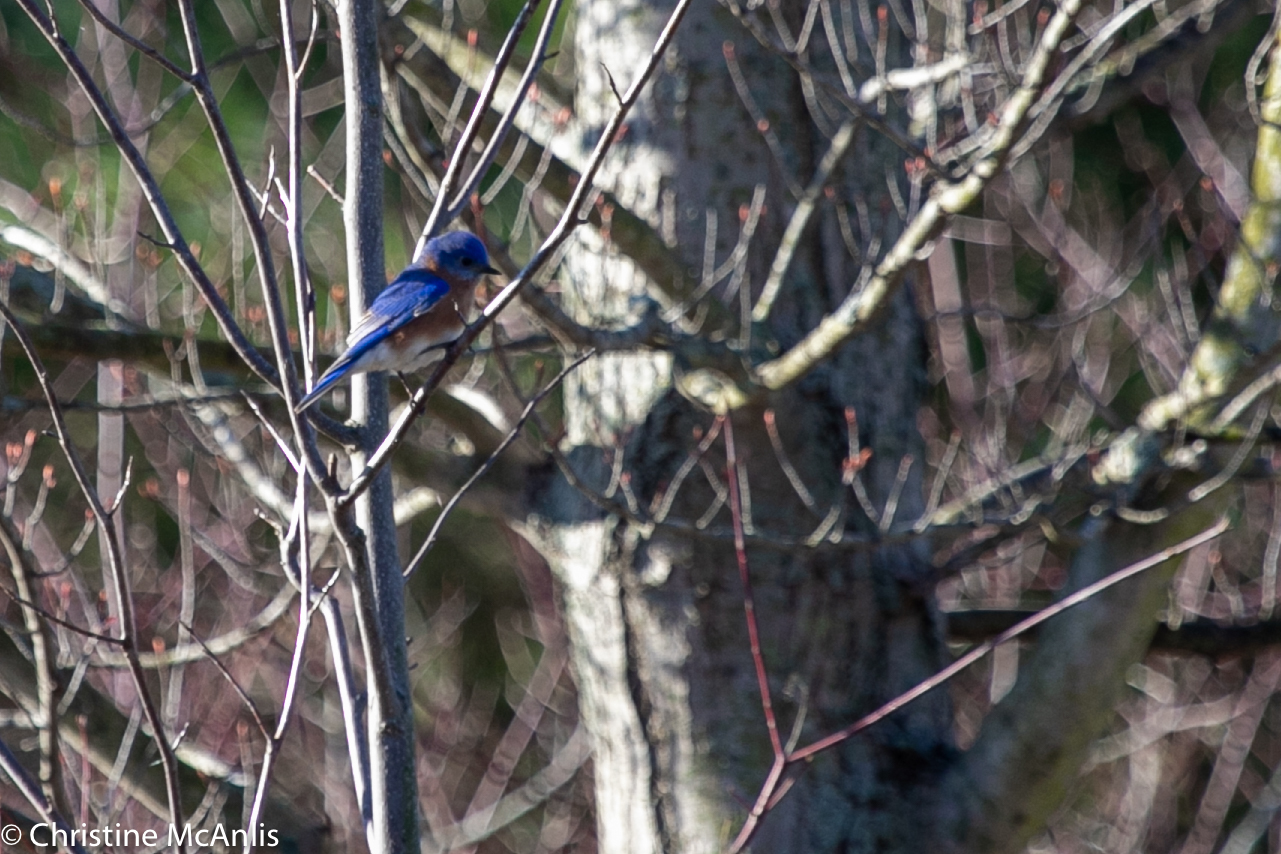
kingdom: Animalia
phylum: Chordata
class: Aves
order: Passeriformes
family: Turdidae
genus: Sialia
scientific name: Sialia sialis
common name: Eastern bluebird
